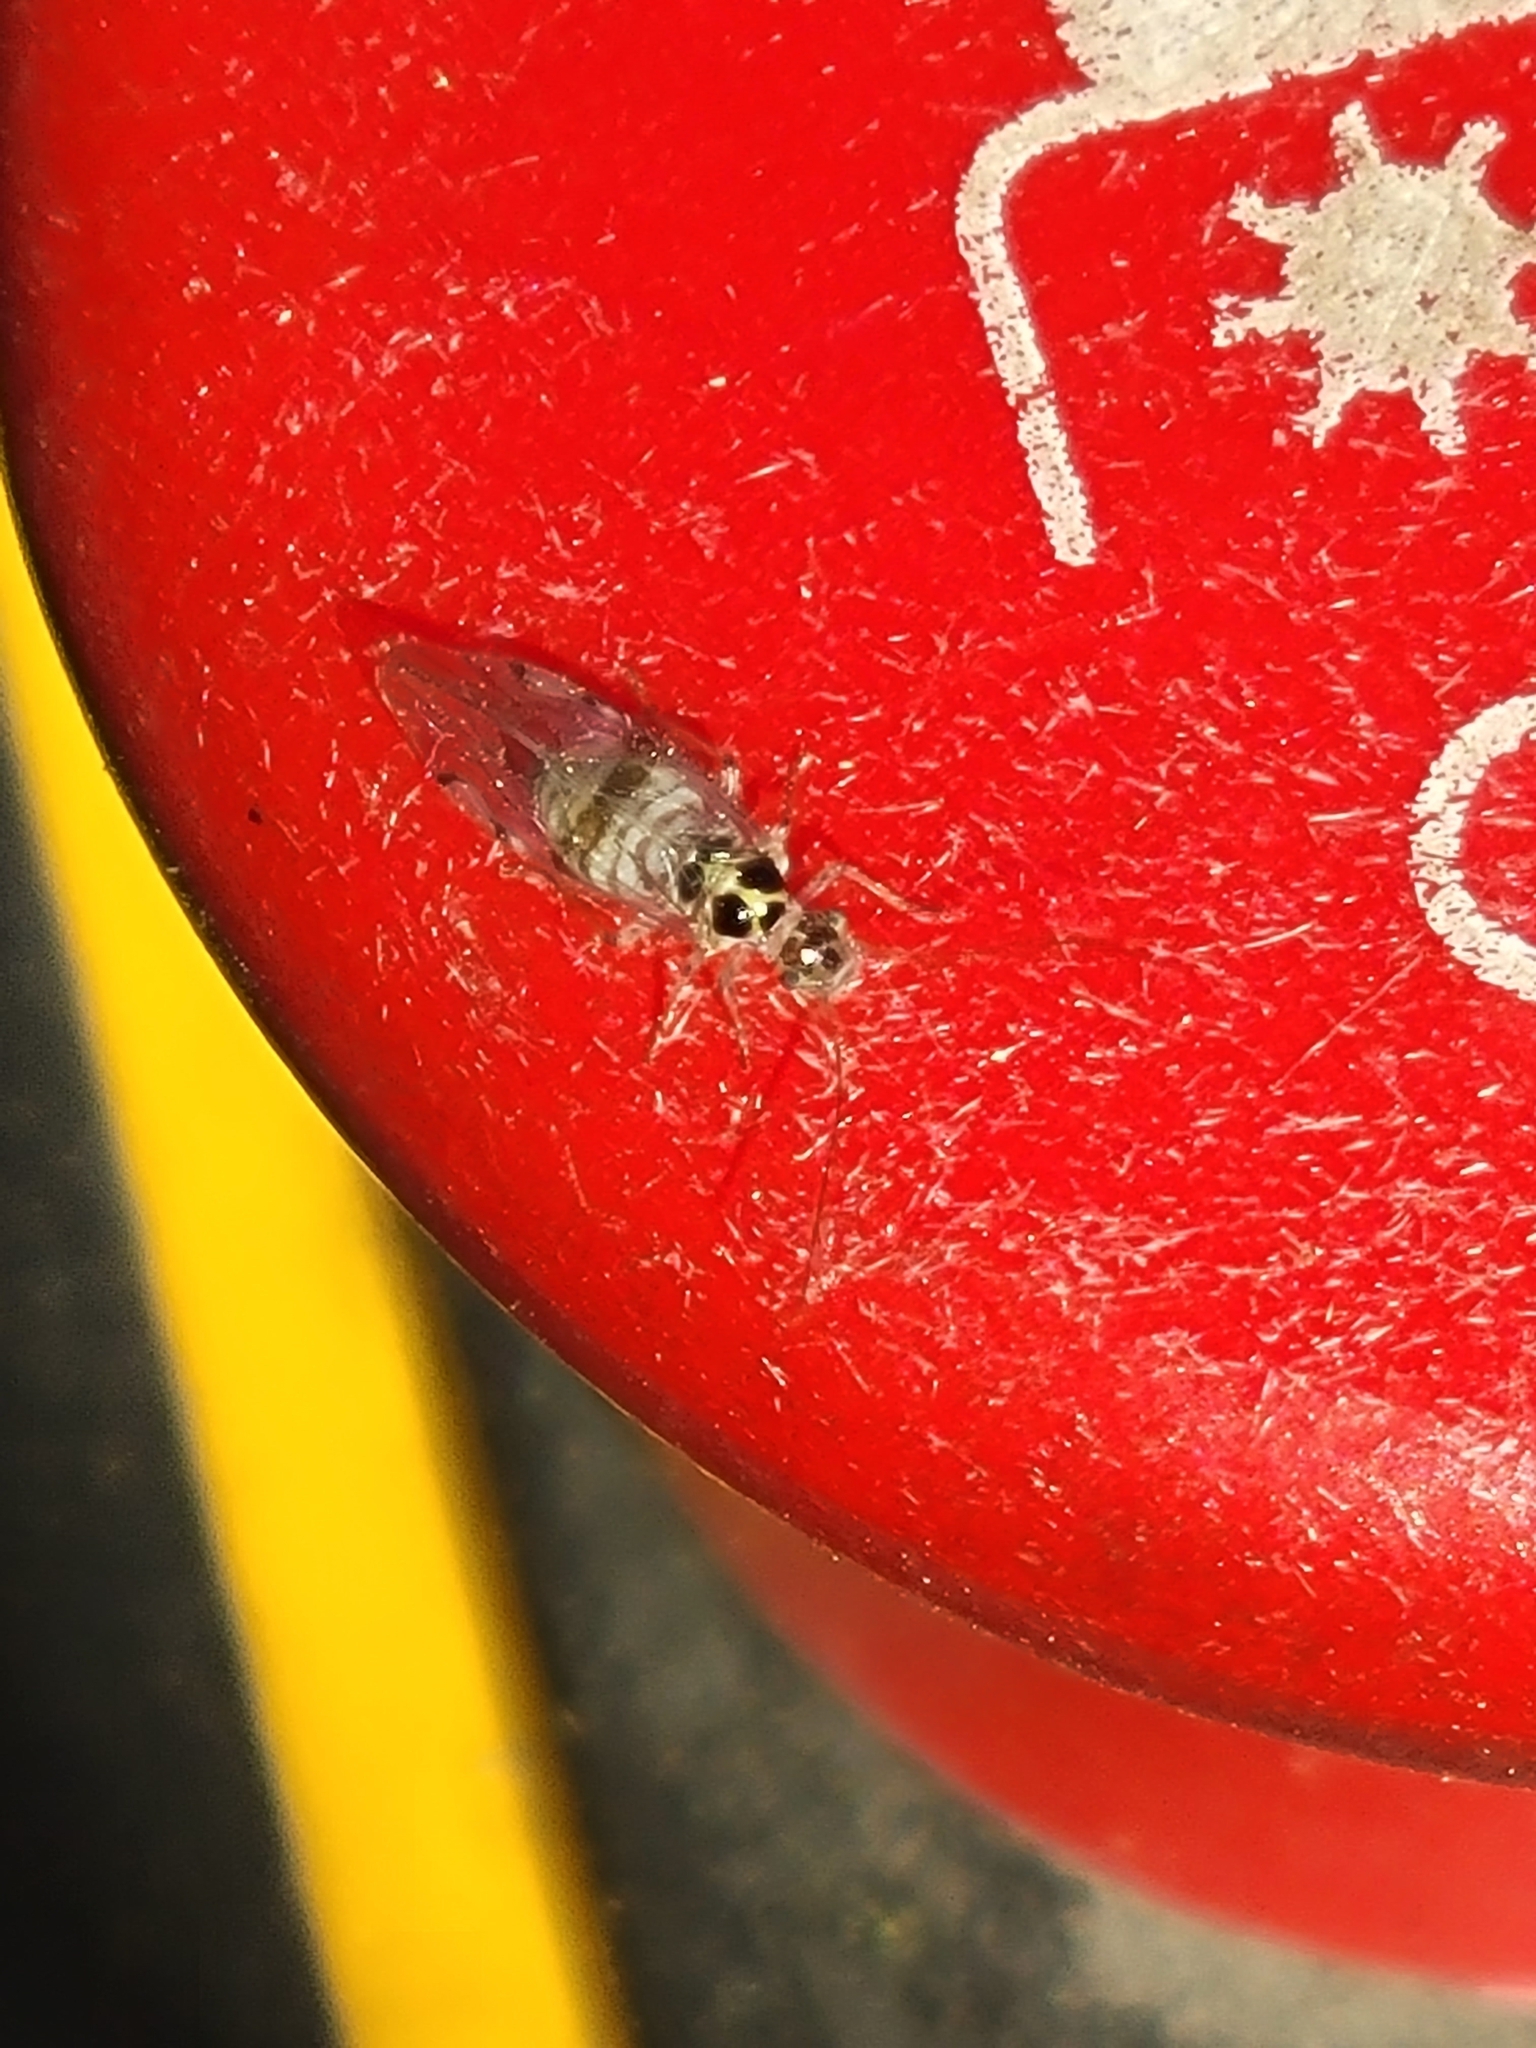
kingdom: Animalia
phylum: Arthropoda
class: Insecta
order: Psocodea
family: Dasydemellidae
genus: Teliapsocus
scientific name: Teliapsocus conterminus
